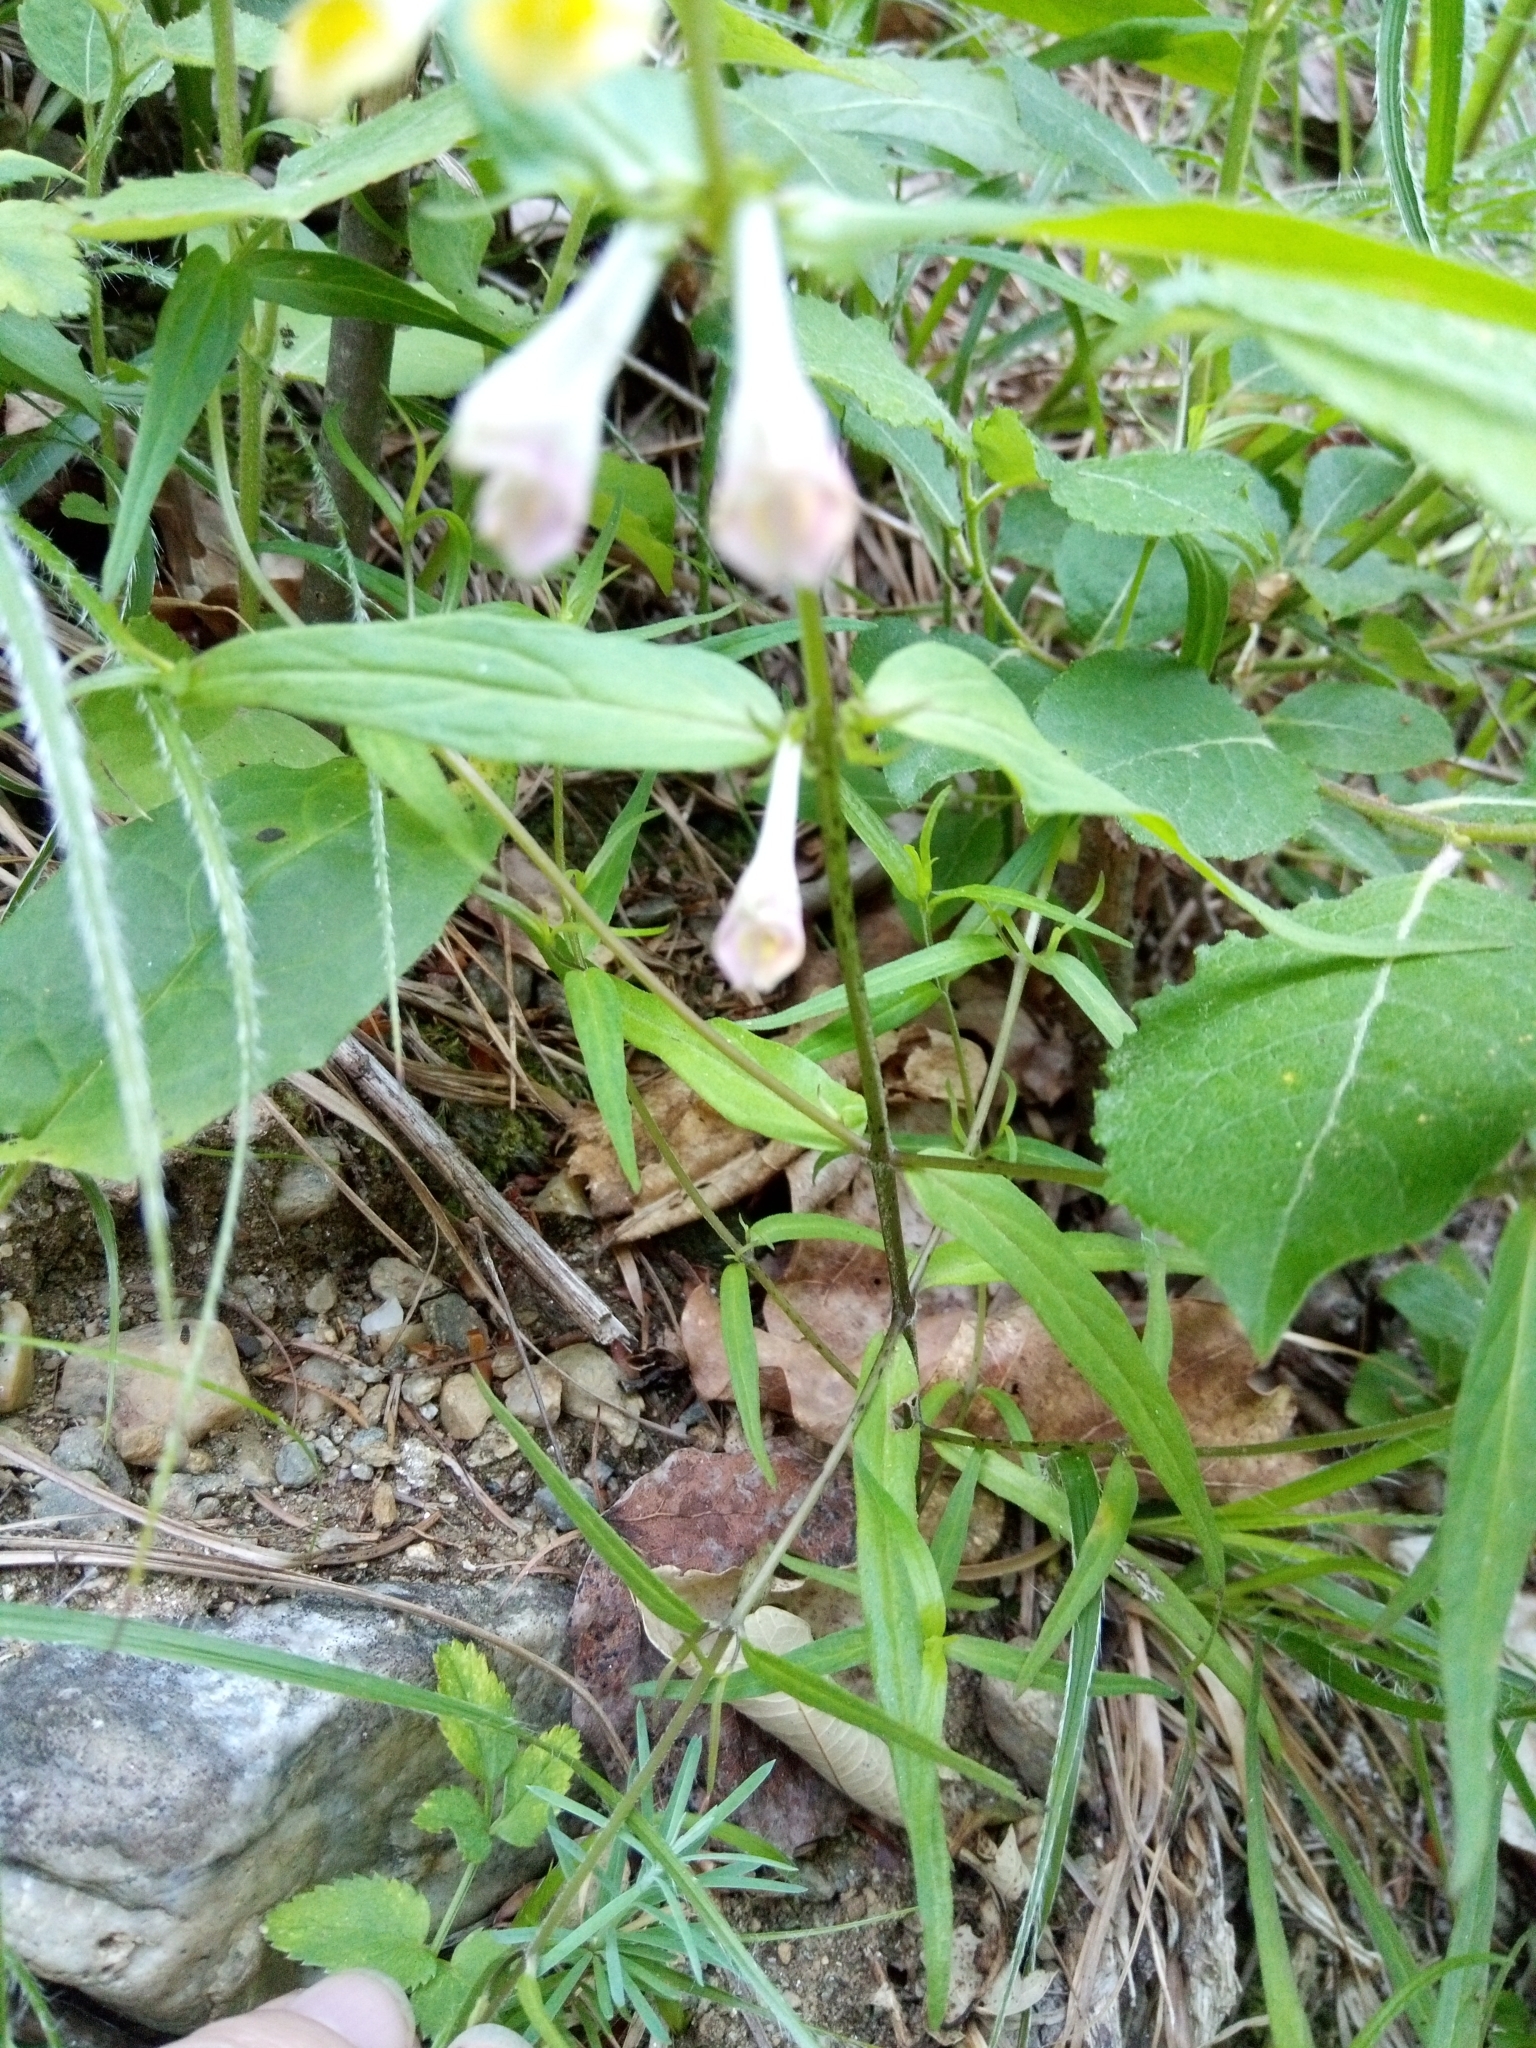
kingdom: Plantae
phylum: Tracheophyta
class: Magnoliopsida
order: Lamiales
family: Orobanchaceae
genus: Melampyrum
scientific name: Melampyrum pratense
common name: Common cow-wheat
